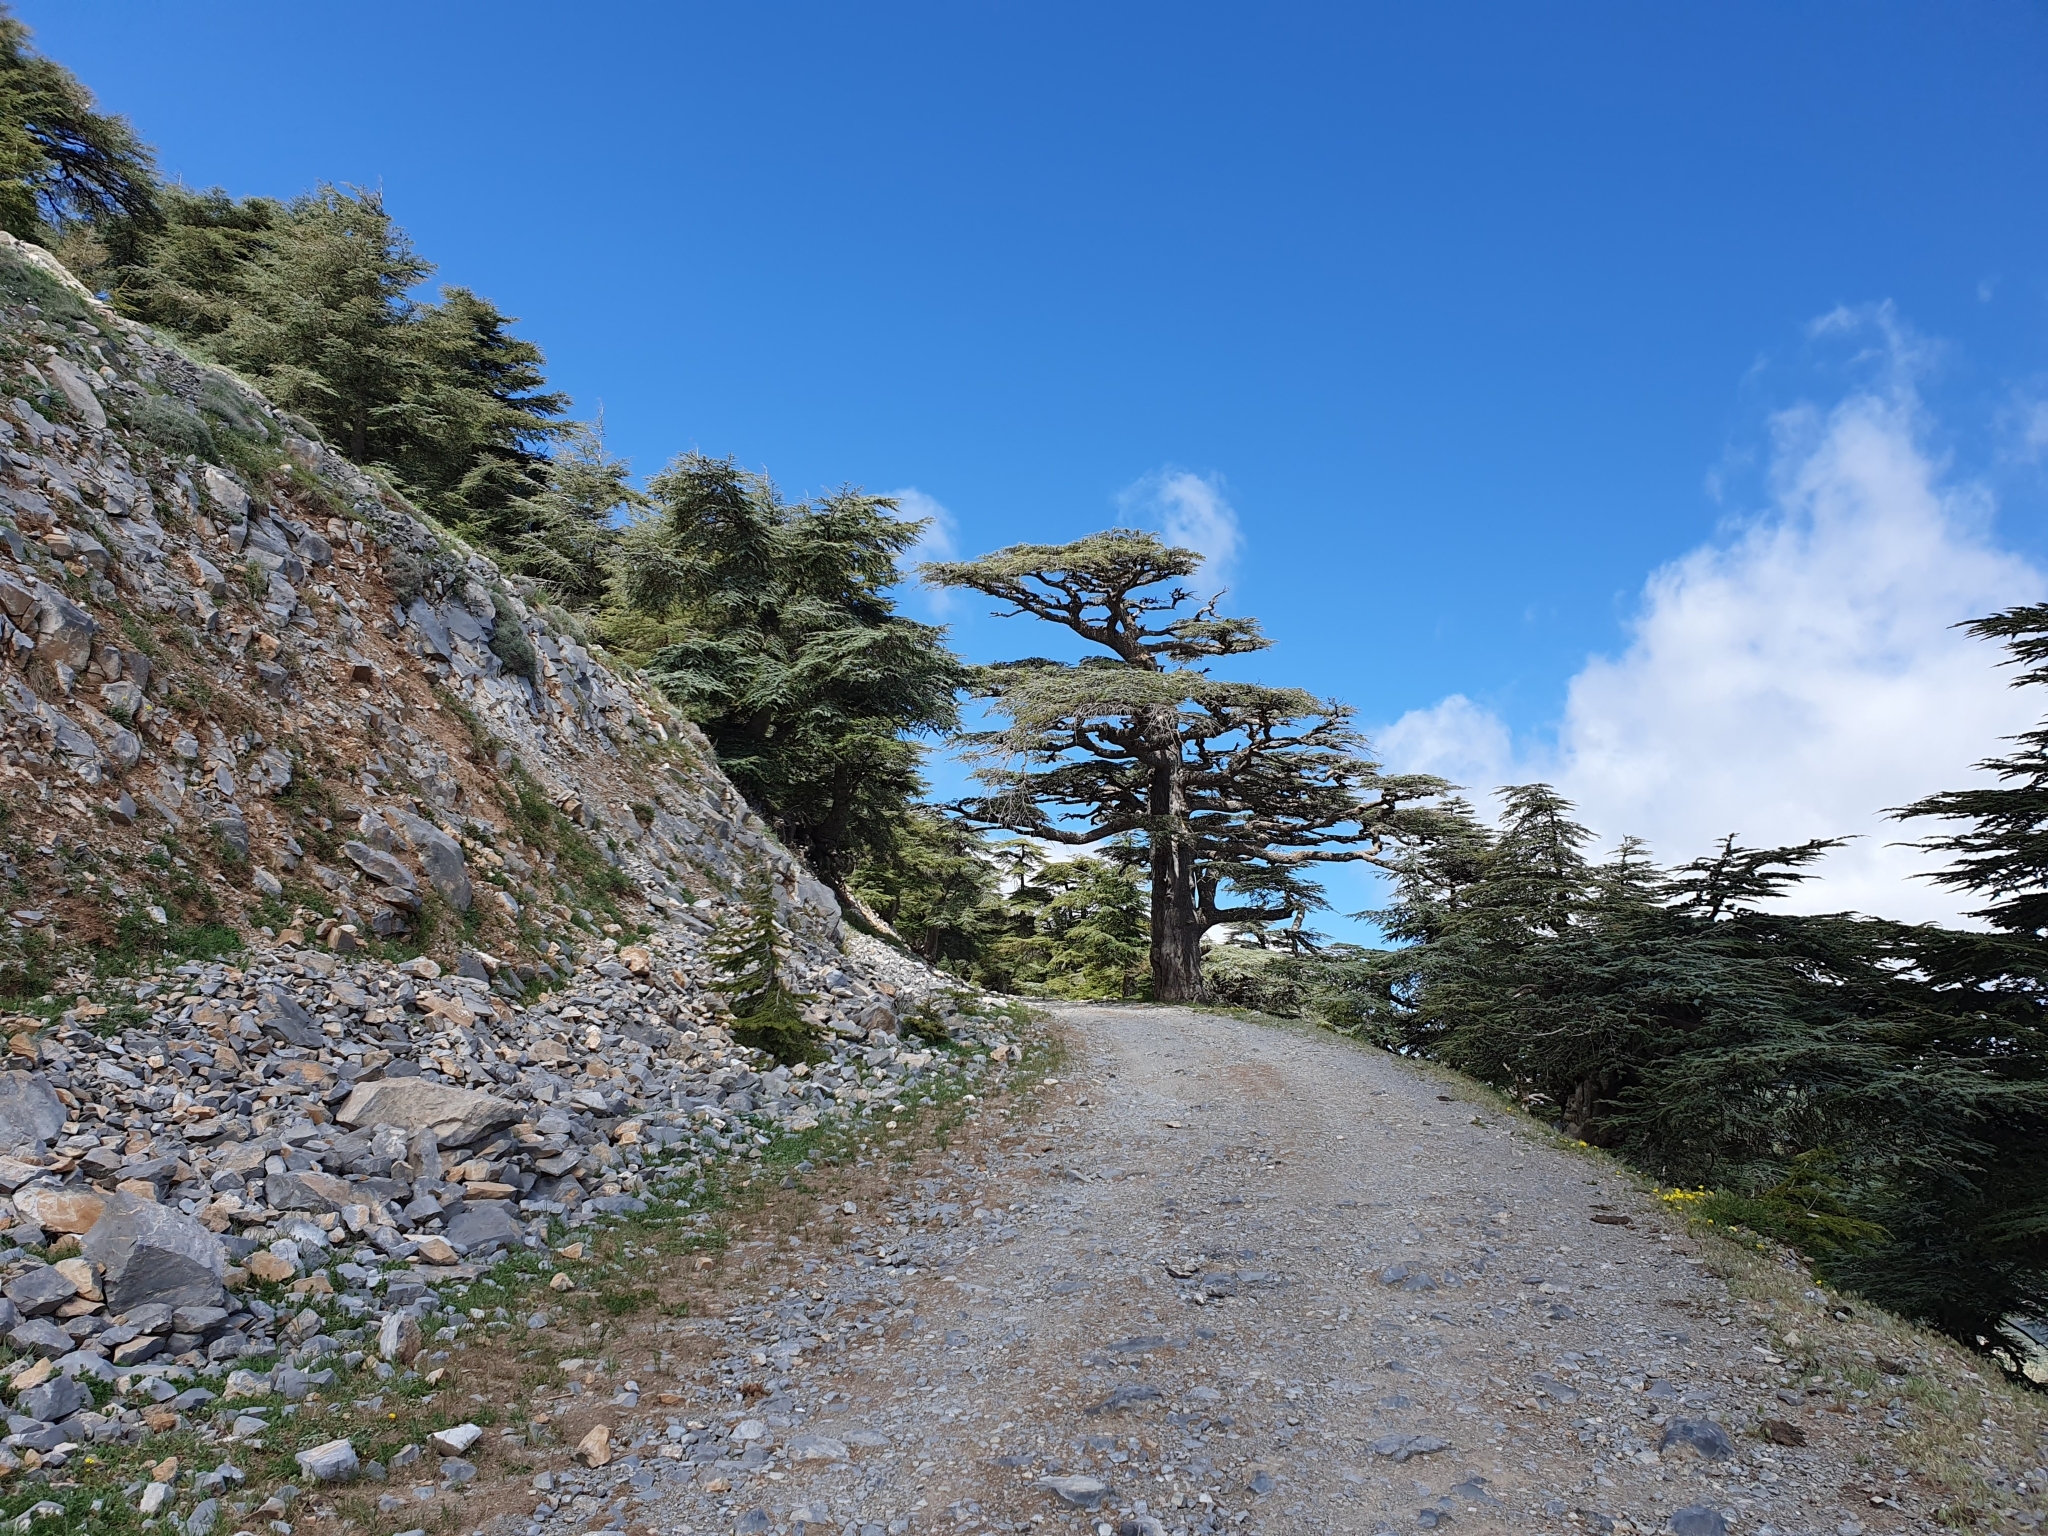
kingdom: Plantae
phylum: Tracheophyta
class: Pinopsida
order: Pinales
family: Pinaceae
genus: Cedrus
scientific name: Cedrus atlantica
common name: Atlas cedar
